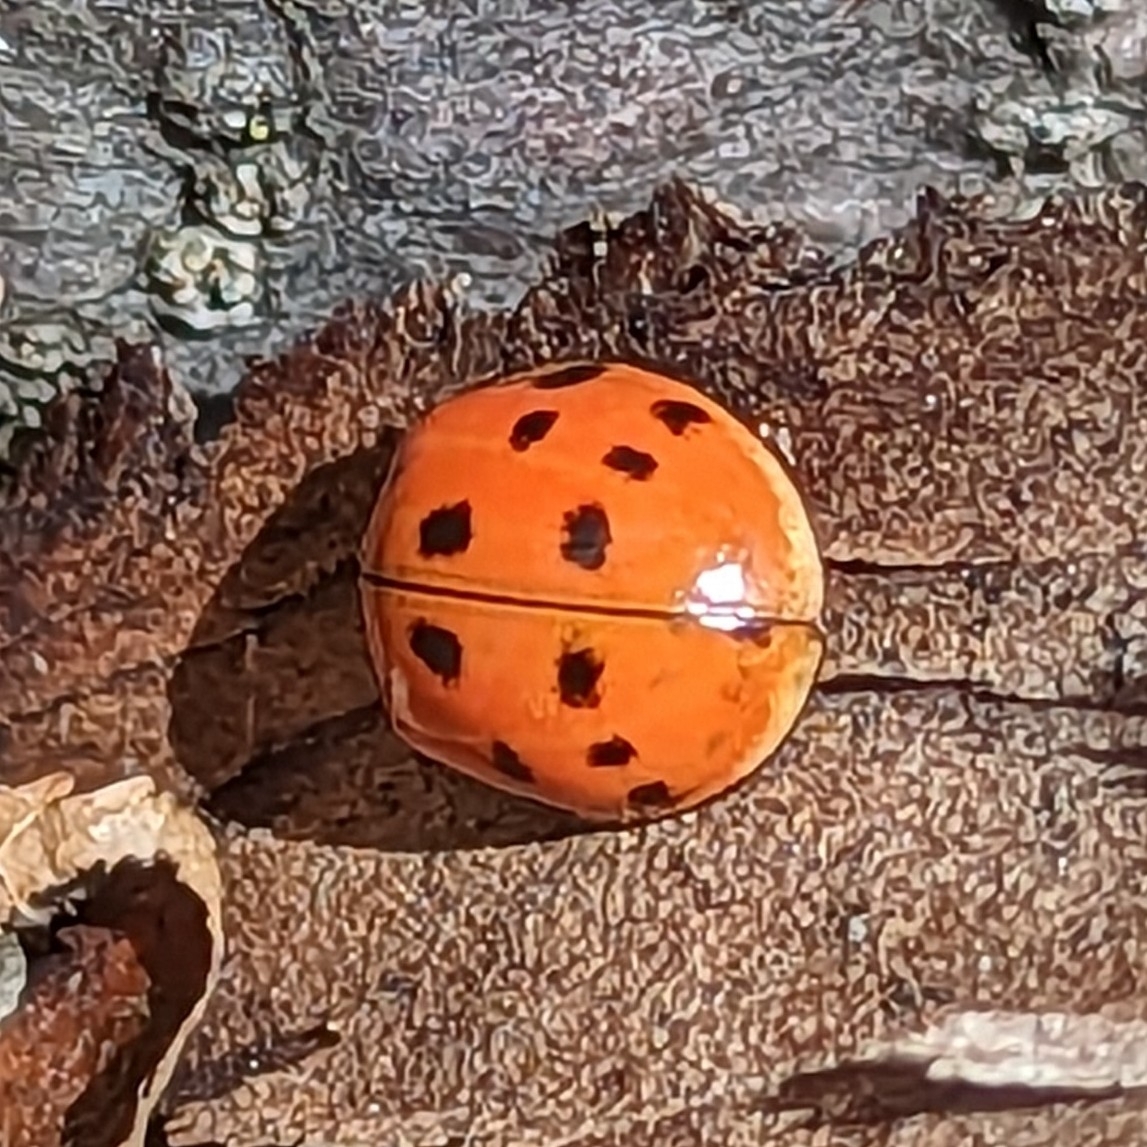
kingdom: Animalia
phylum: Arthropoda
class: Insecta
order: Coleoptera
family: Coccinellidae
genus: Harmonia
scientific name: Harmonia axyridis
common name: Harlequin ladybird
